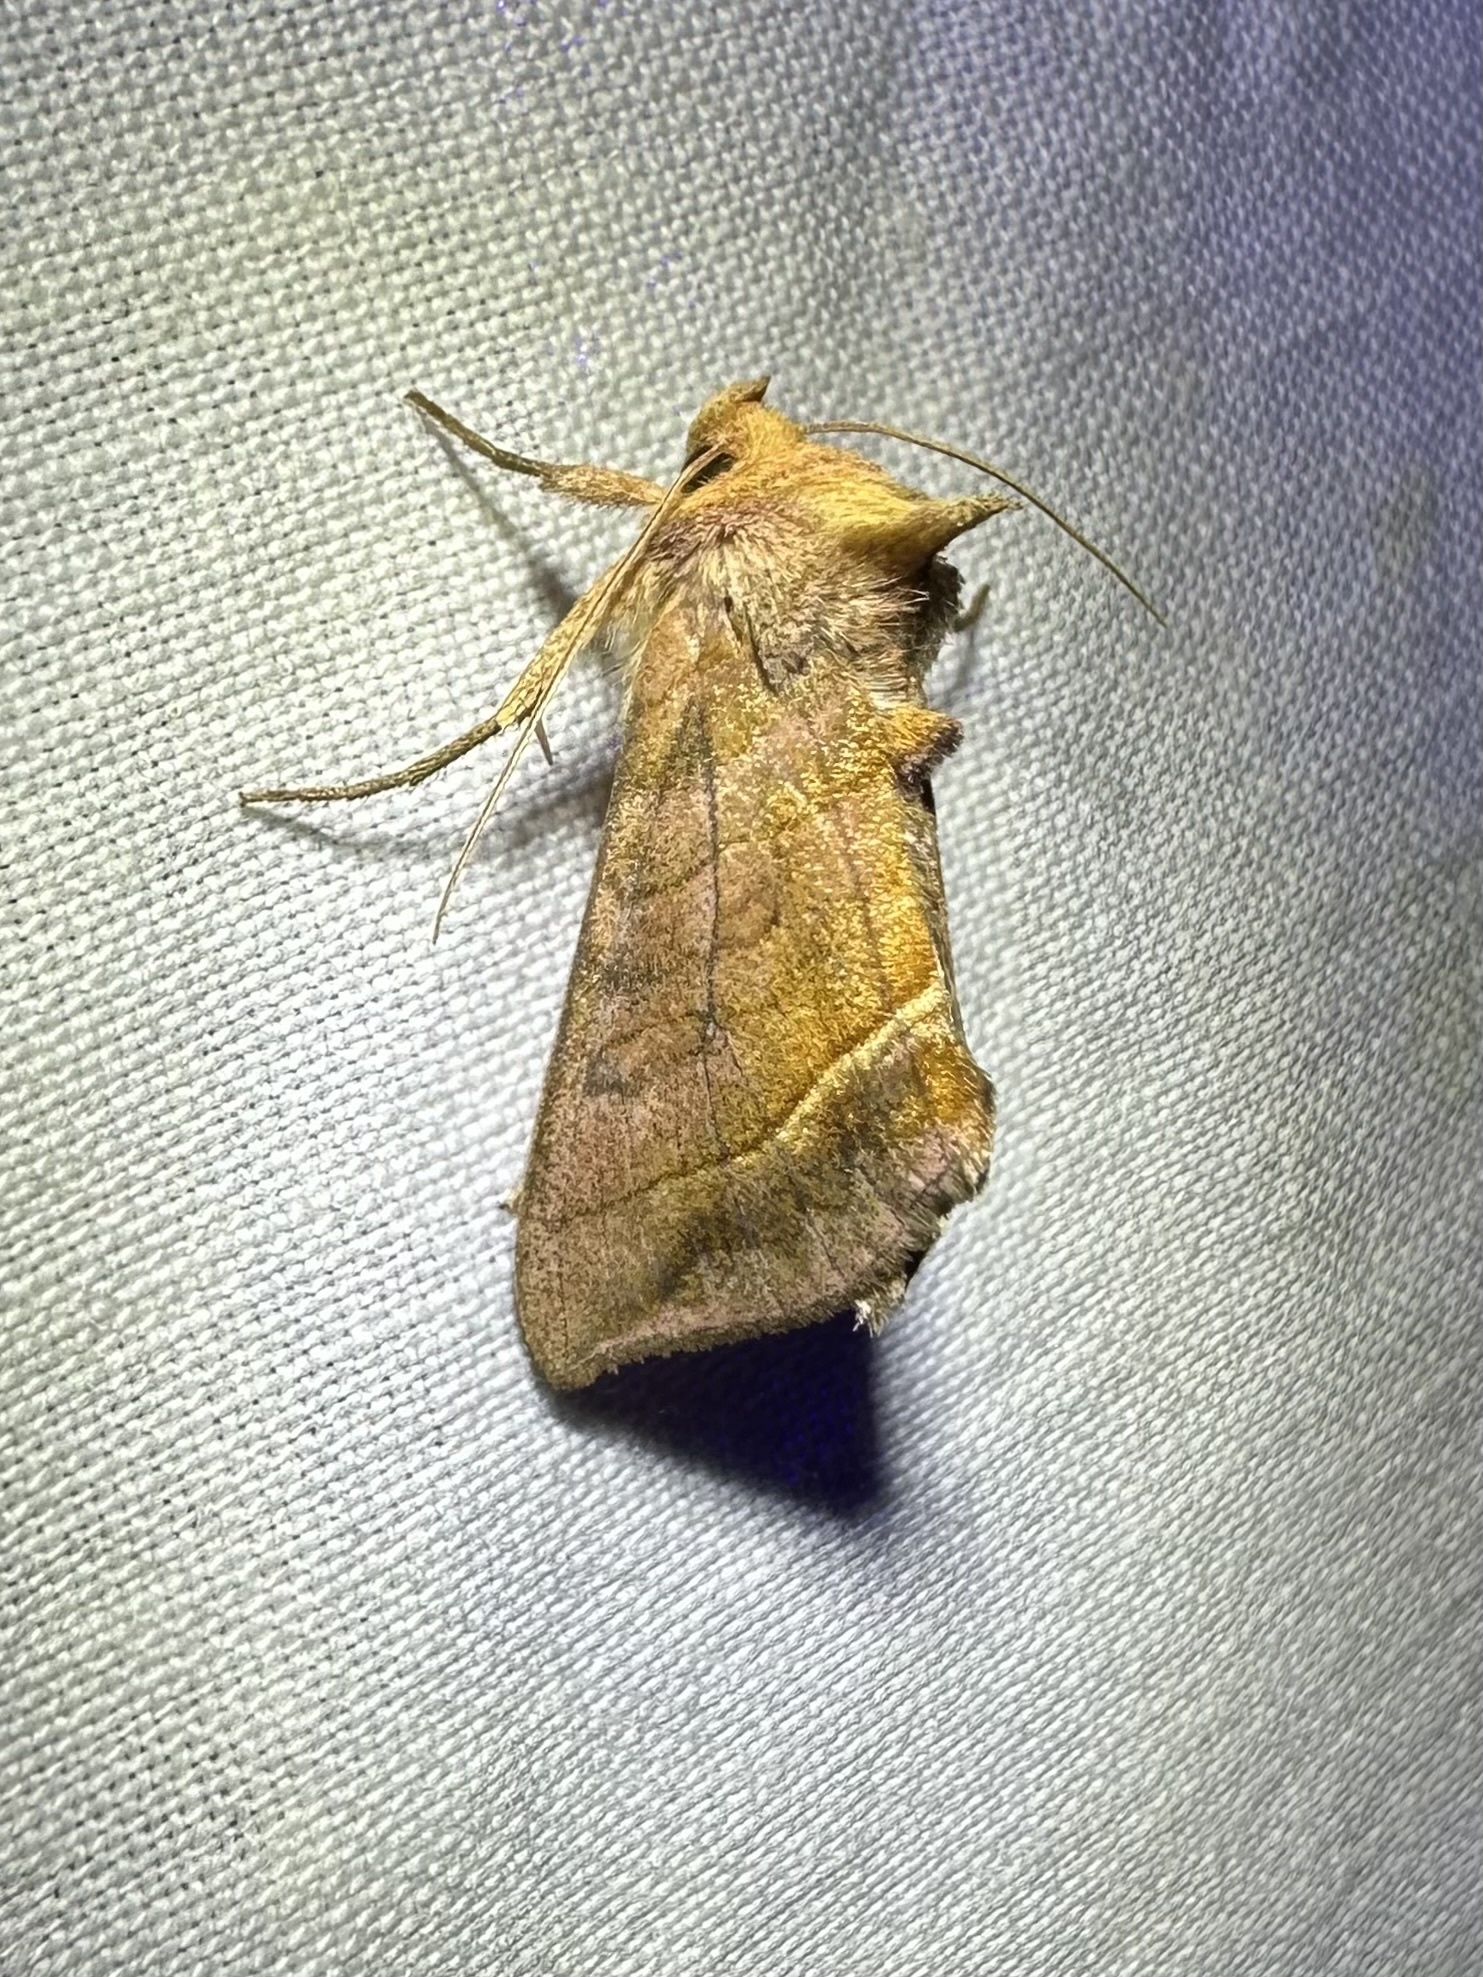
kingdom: Animalia
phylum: Arthropoda
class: Insecta
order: Lepidoptera
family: Noctuidae
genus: Diachrysia
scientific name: Diachrysia aereoides
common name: Dark-spotted looper moth
